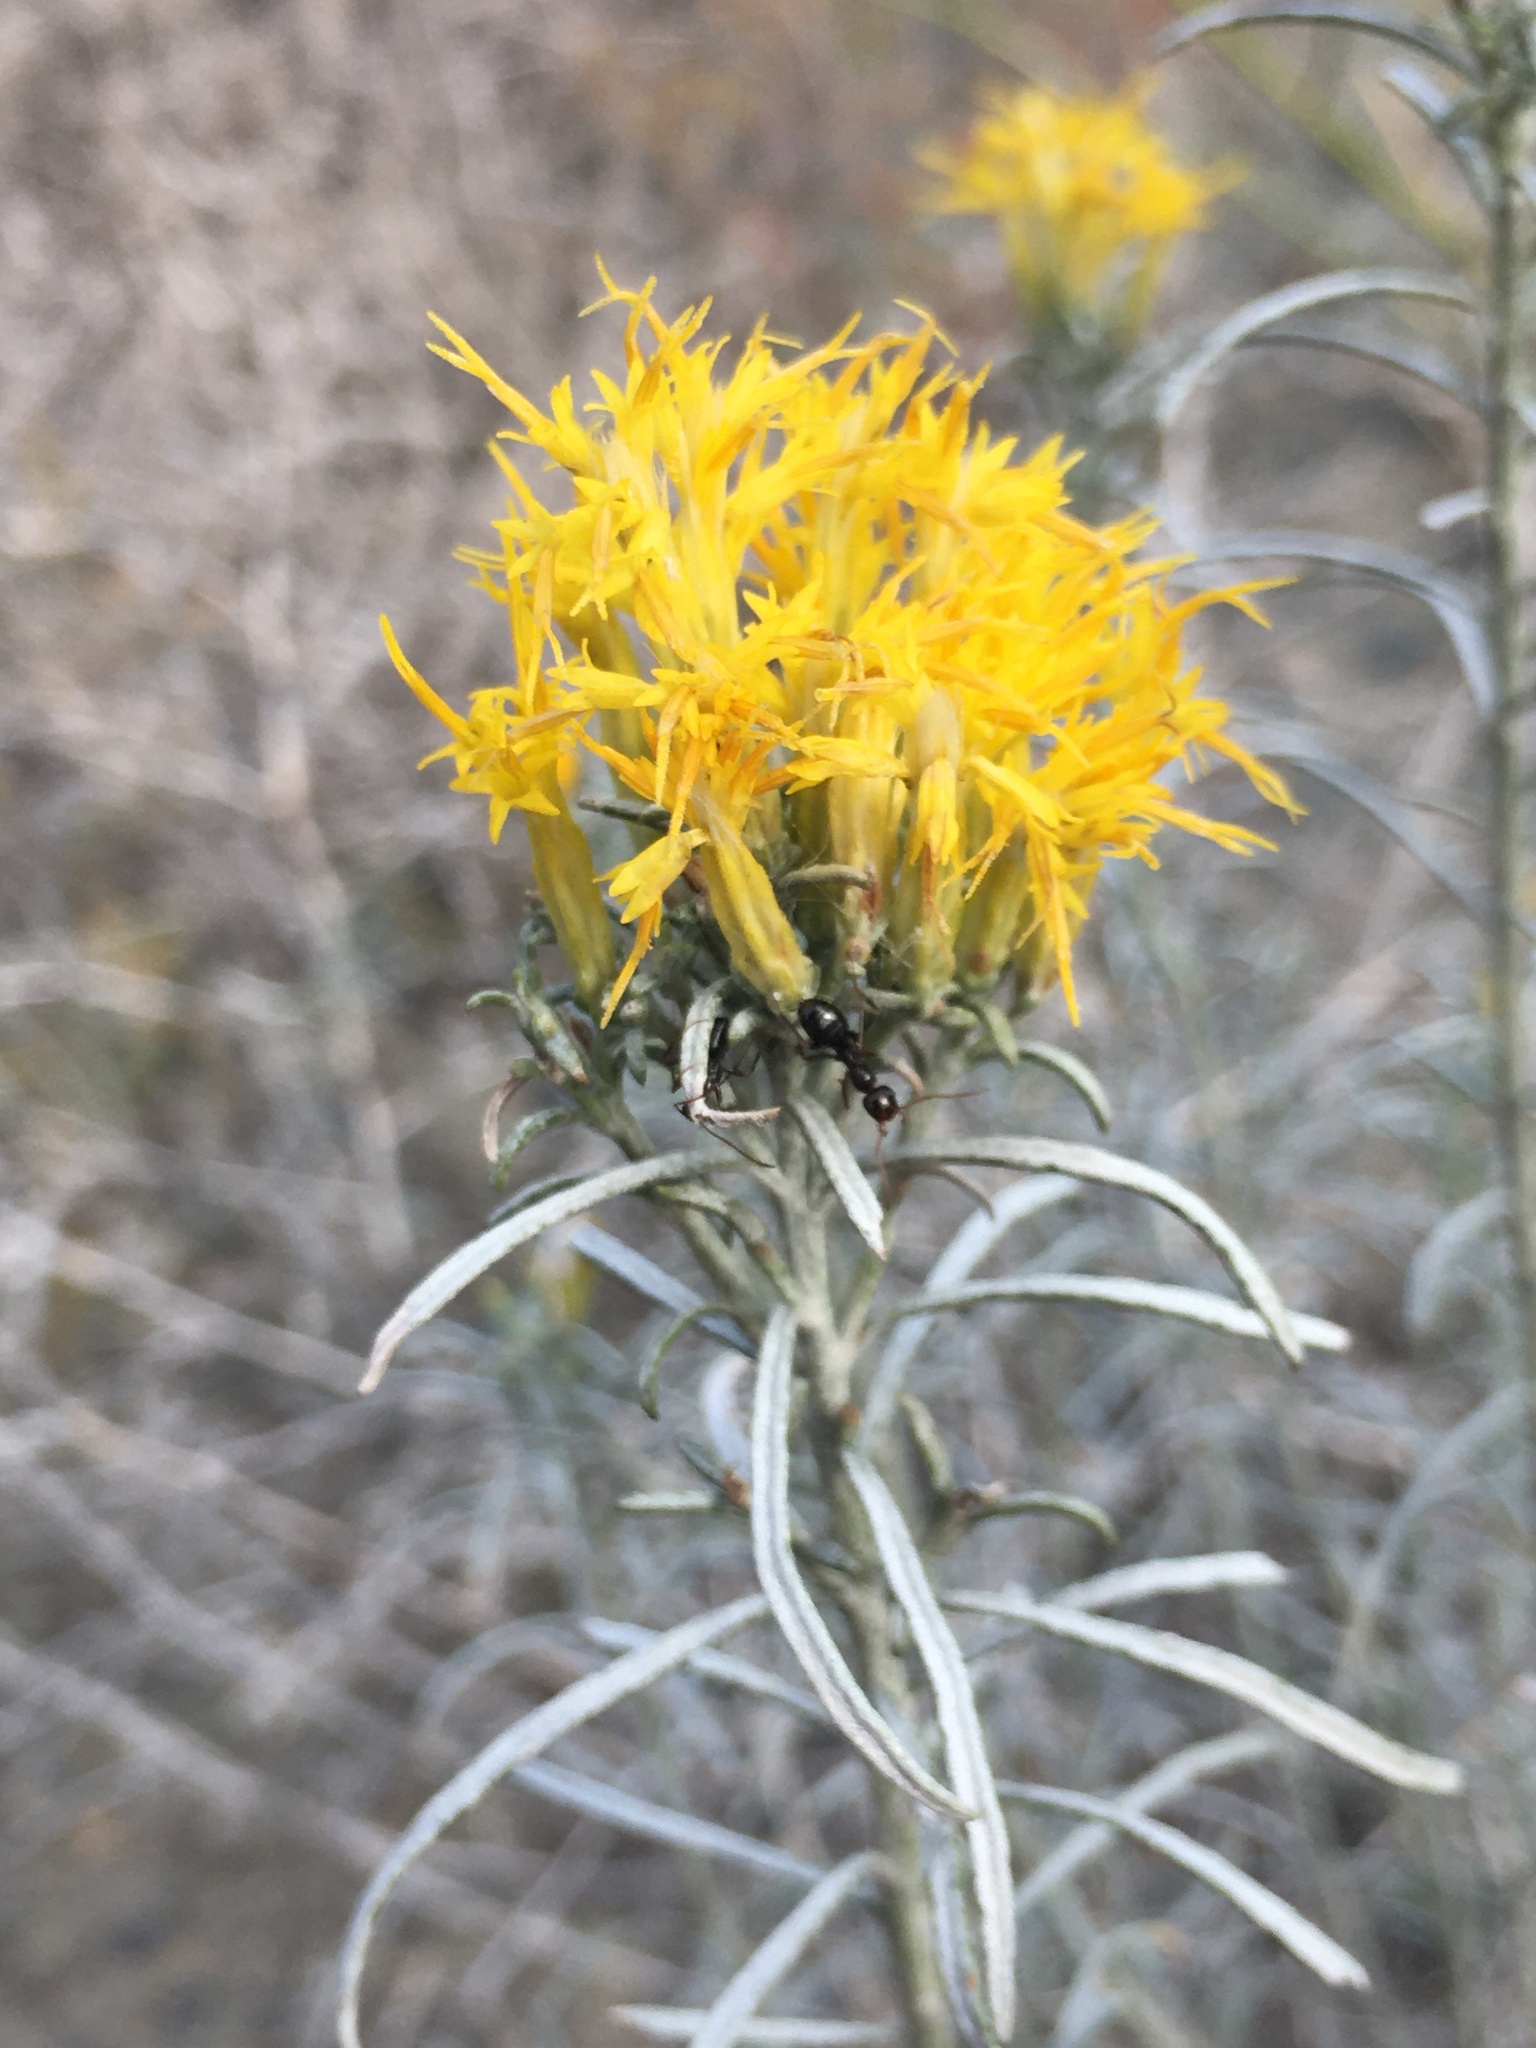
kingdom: Animalia
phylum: Arthropoda
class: Insecta
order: Hymenoptera
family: Formicidae
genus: Formica
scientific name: Formica
